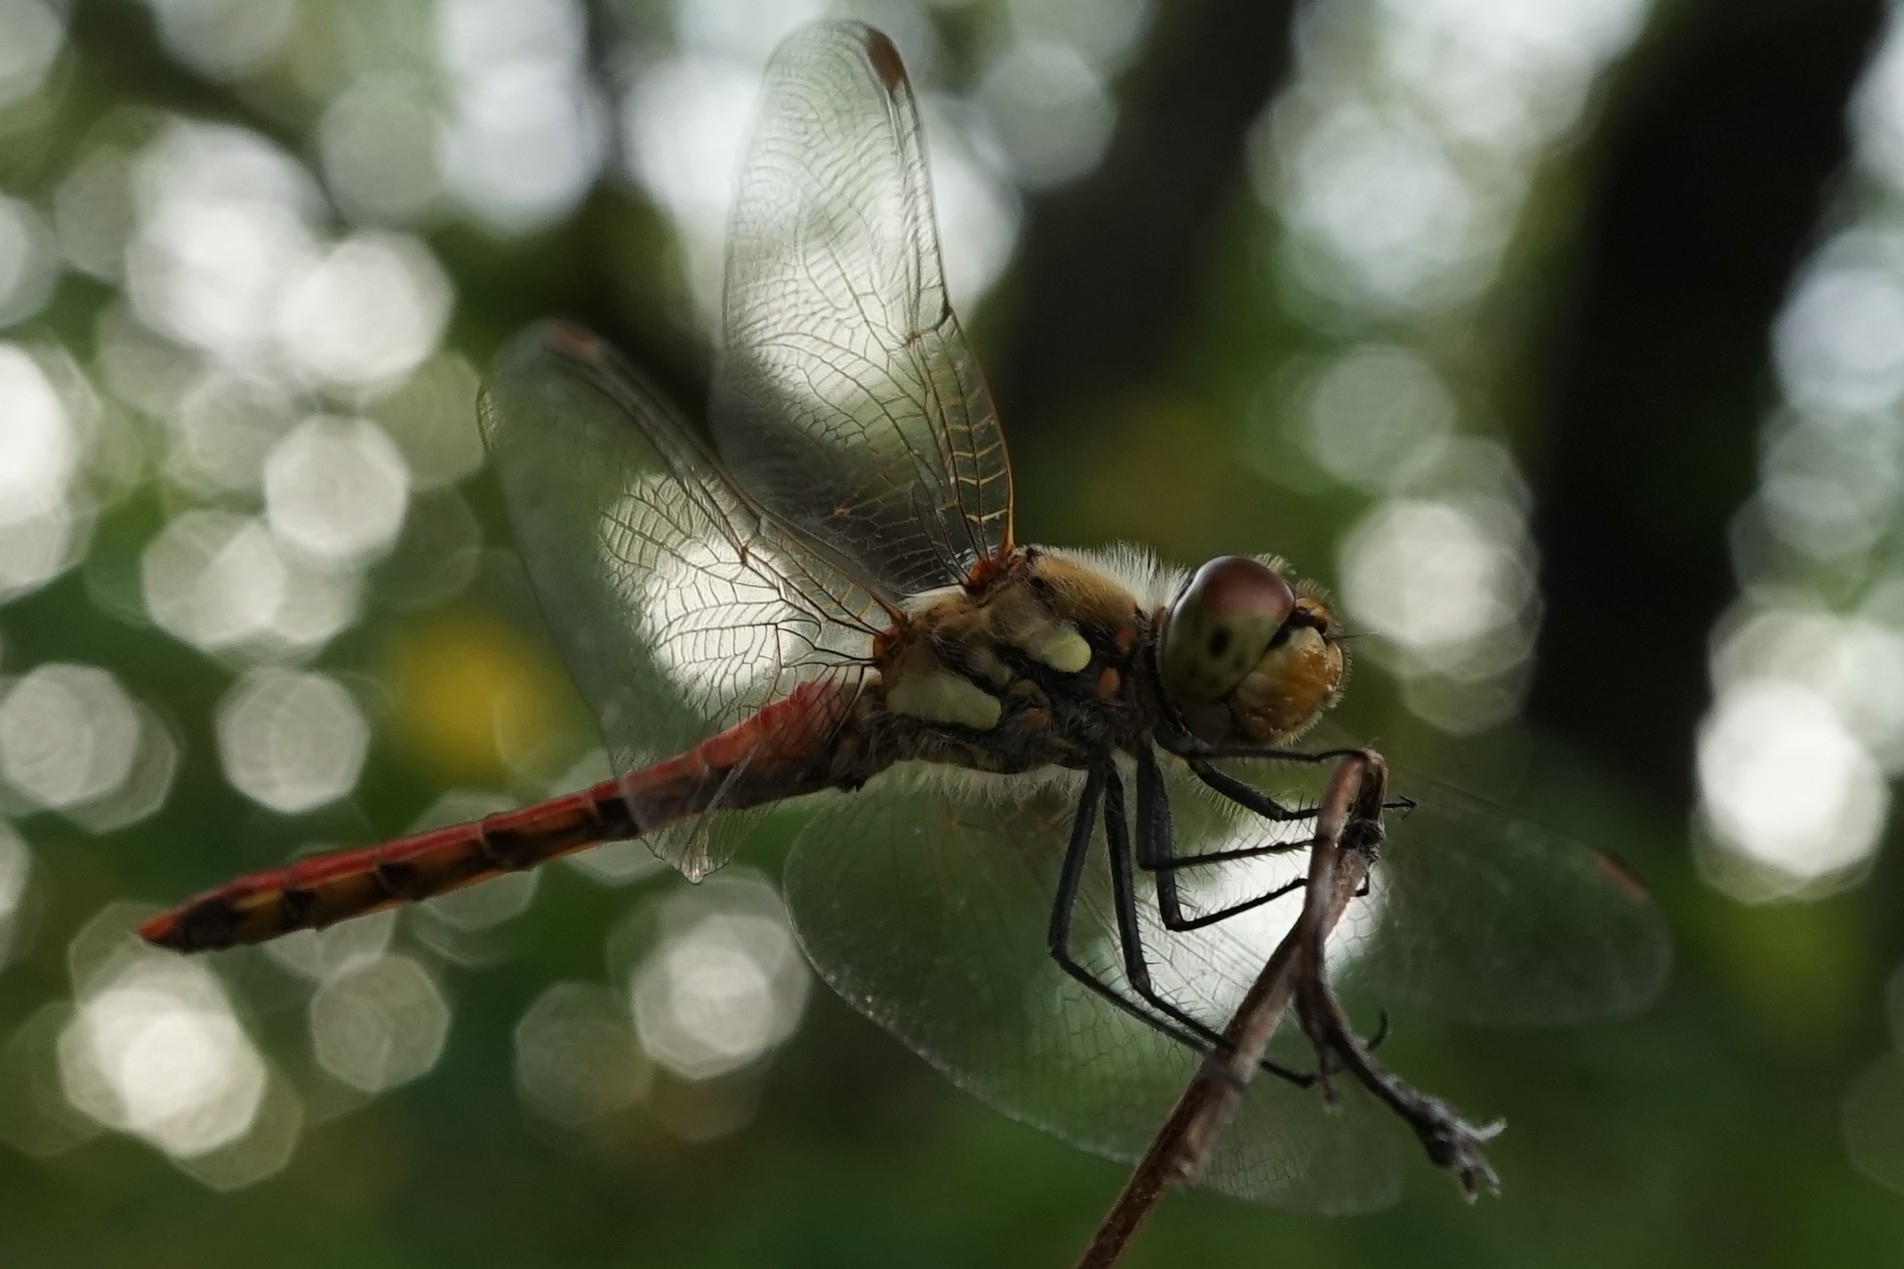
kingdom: Animalia
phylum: Arthropoda
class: Insecta
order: Odonata
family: Libellulidae
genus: Sympetrum
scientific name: Sympetrum frequens
